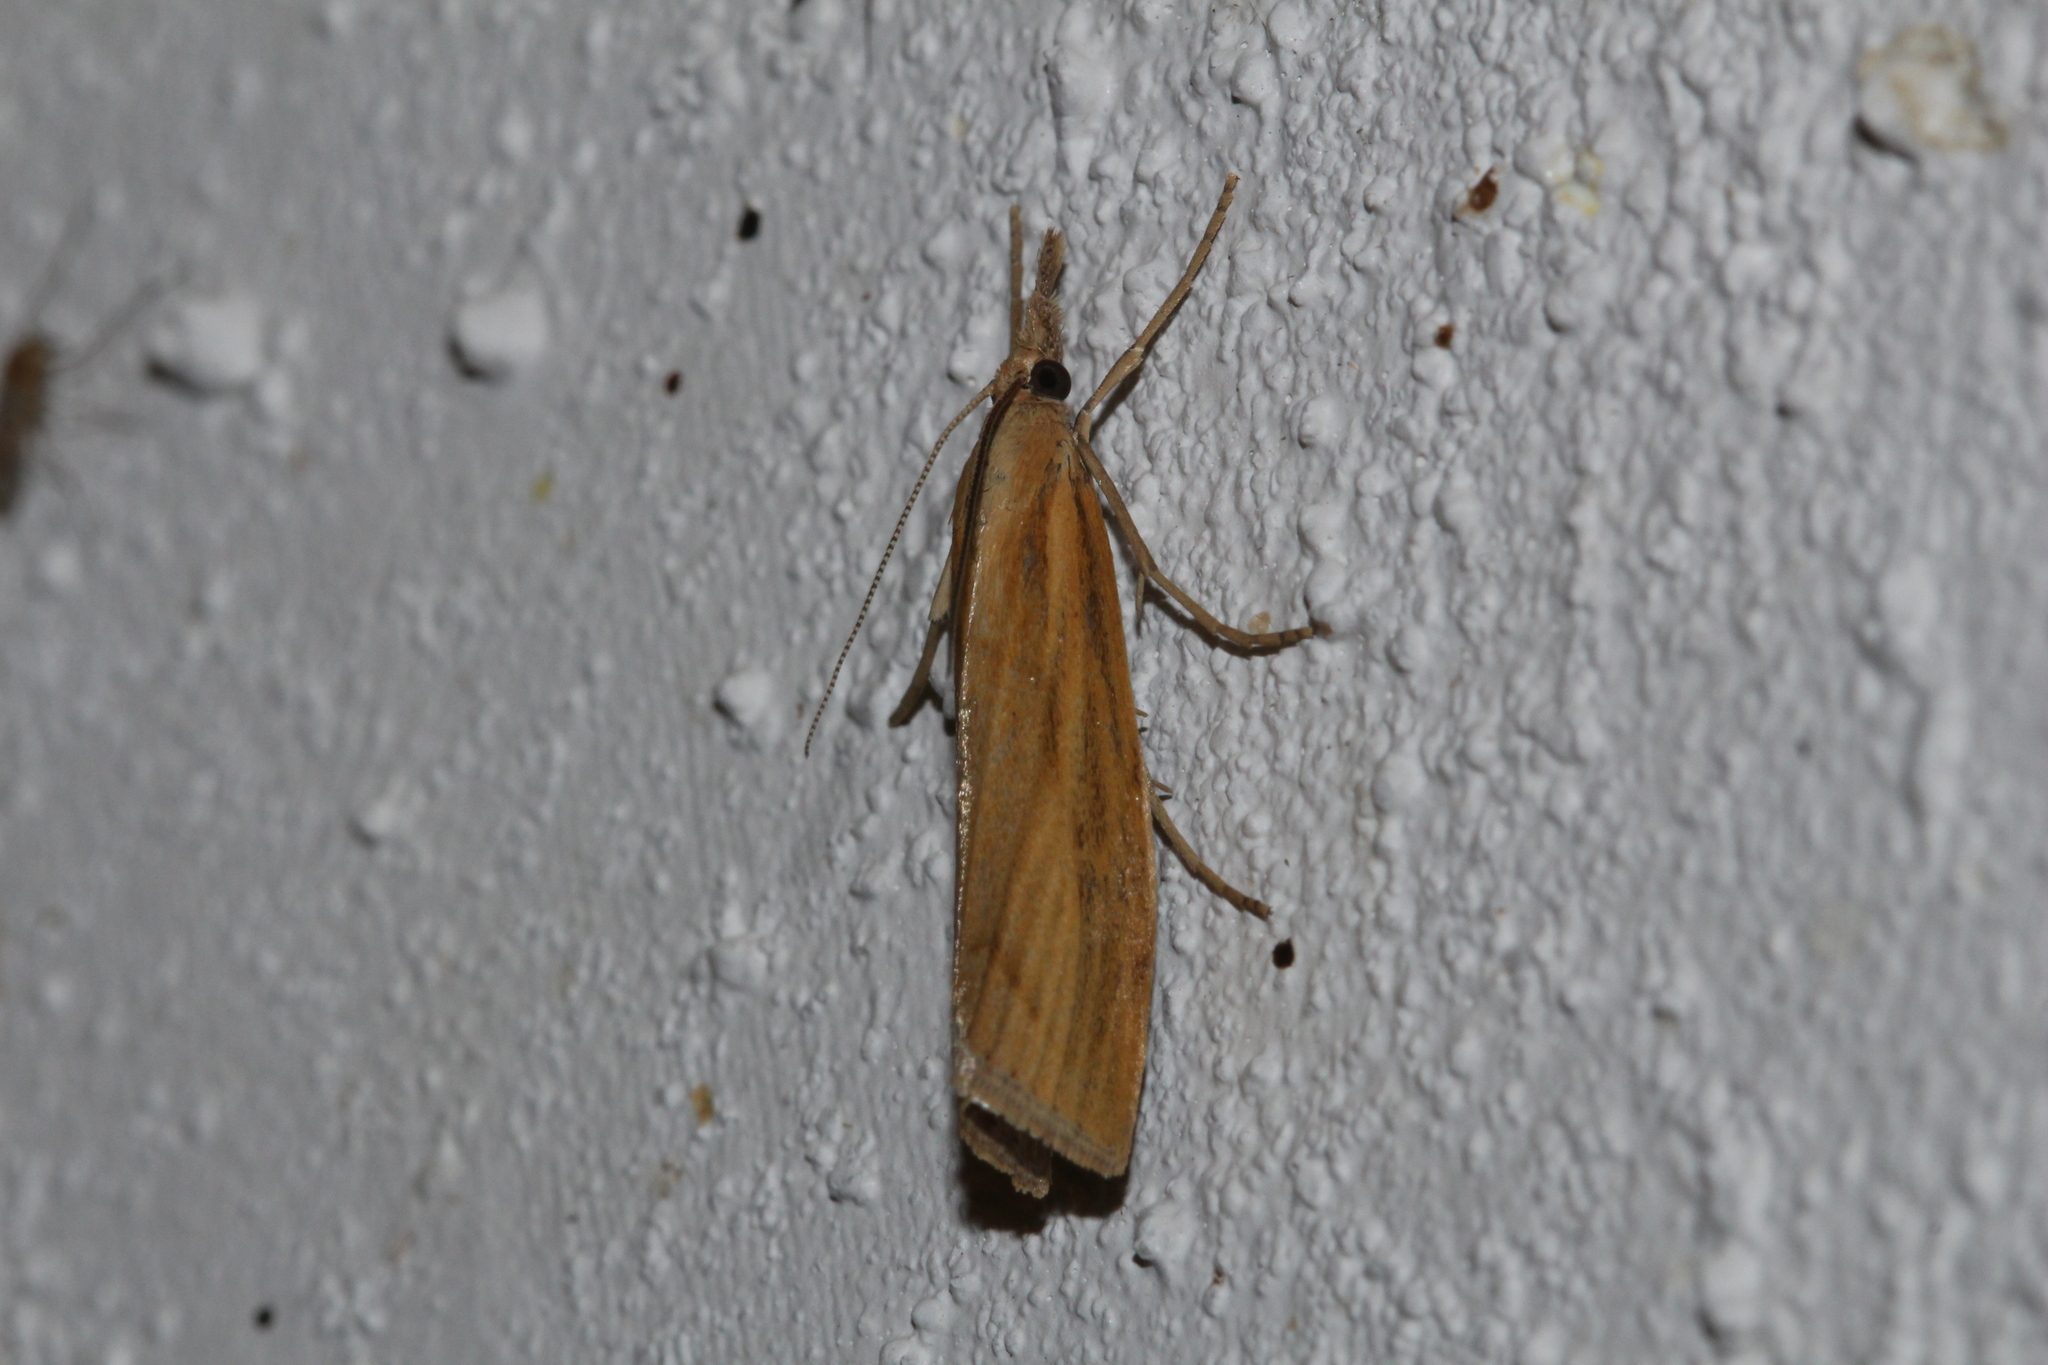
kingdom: Animalia
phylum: Arthropoda
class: Insecta
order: Lepidoptera
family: Crambidae
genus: Agriphila
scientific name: Agriphila tristellus
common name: Common grass-veneer
